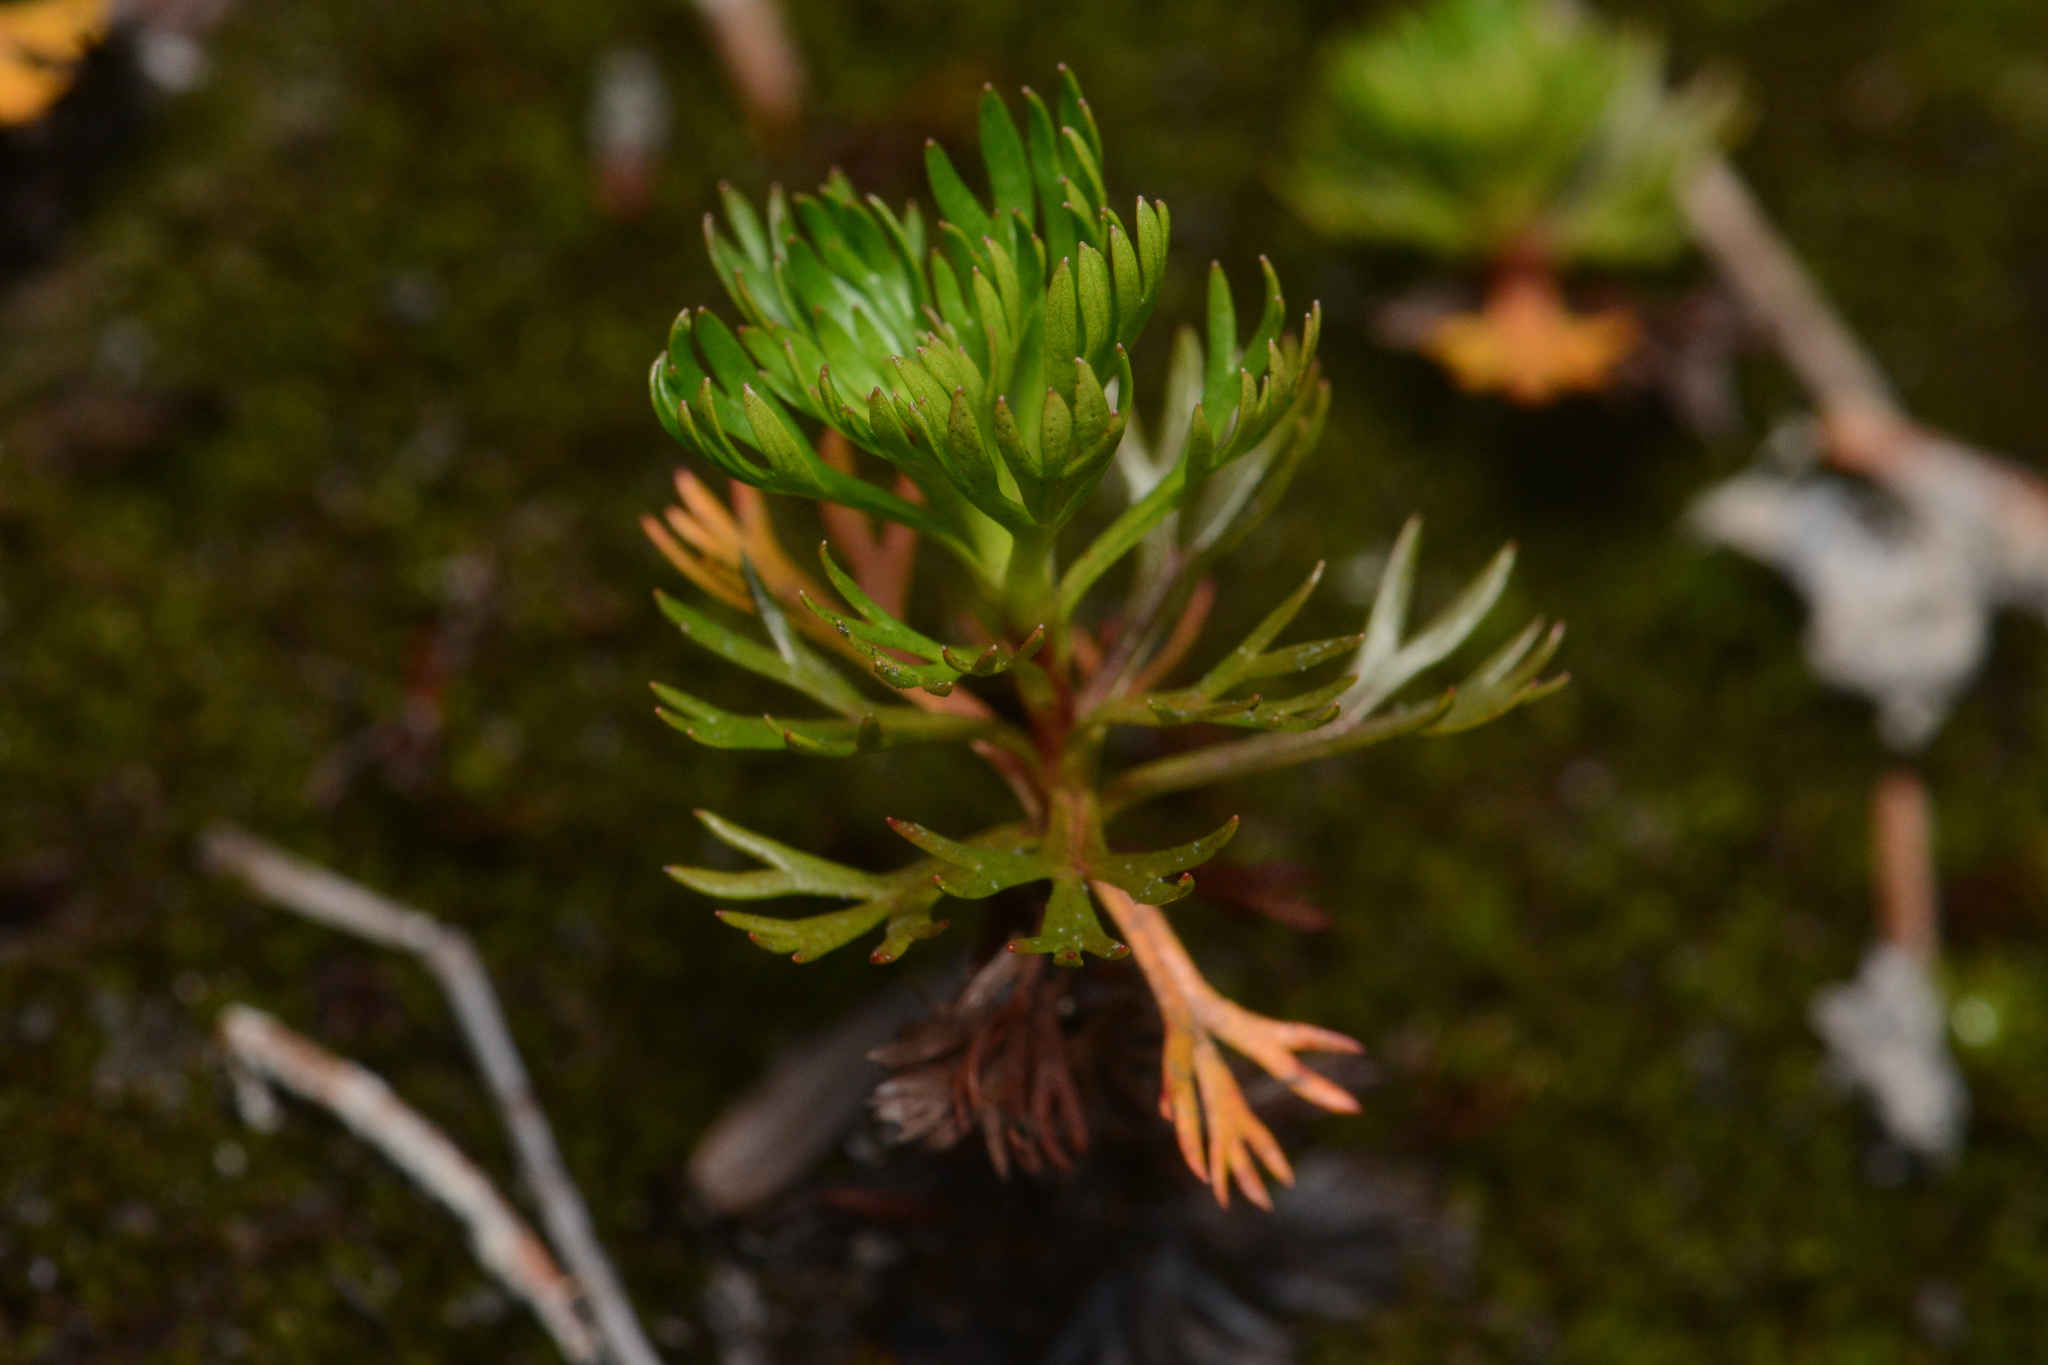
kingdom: Plantae
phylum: Tracheophyta
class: Magnoliopsida
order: Rosales
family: Rosaceae
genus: Luetkea
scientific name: Luetkea pectinata
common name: Partridgefoot
